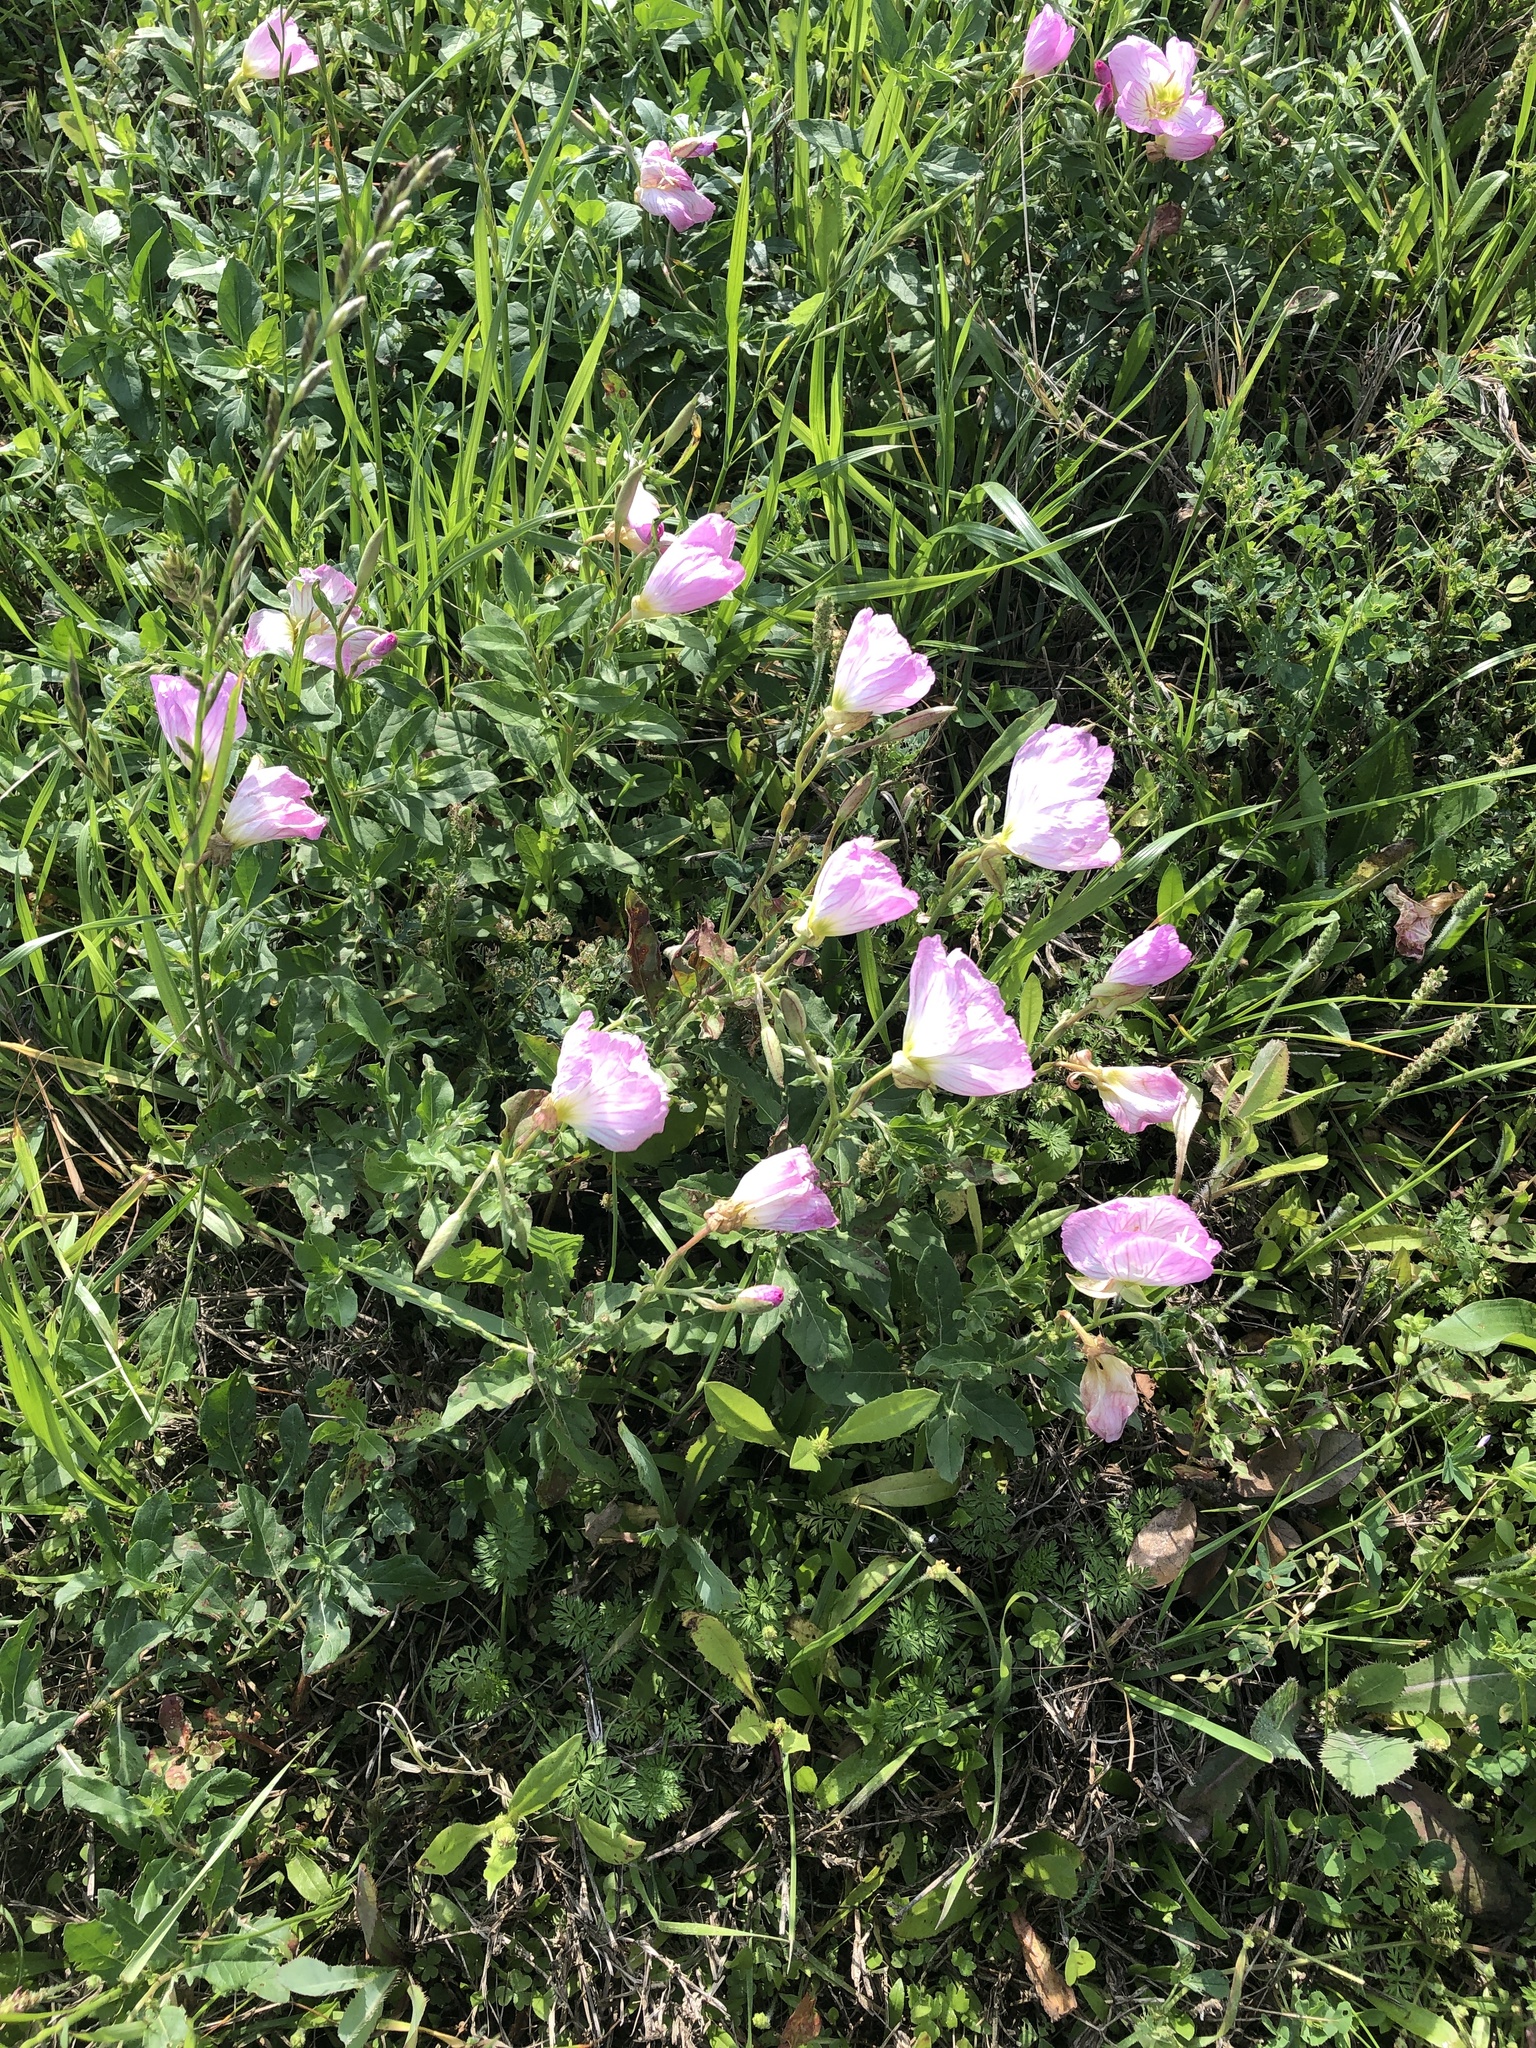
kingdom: Plantae
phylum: Tracheophyta
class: Magnoliopsida
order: Myrtales
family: Onagraceae
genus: Oenothera
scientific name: Oenothera speciosa
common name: White evening-primrose
